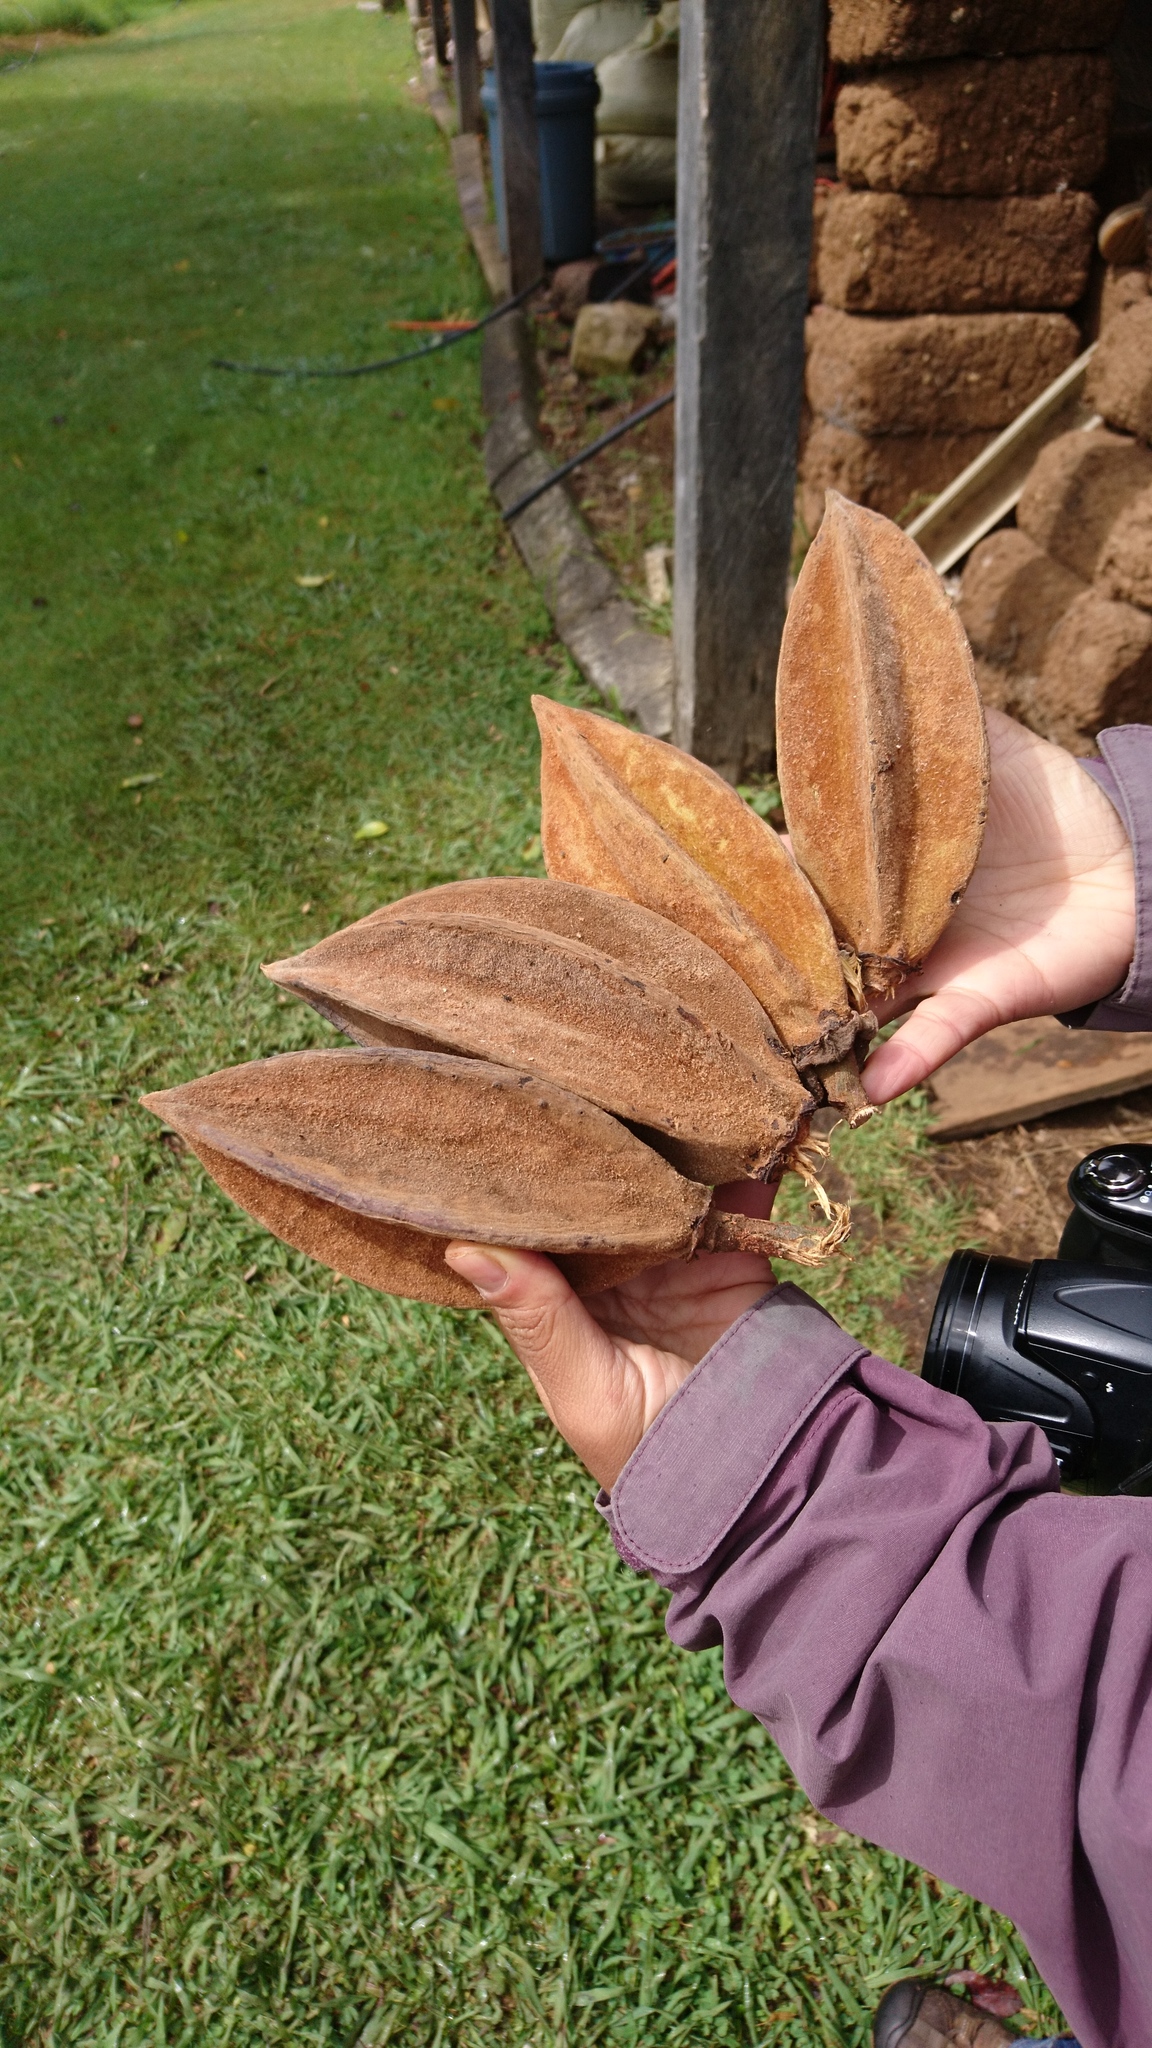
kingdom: Plantae
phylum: Tracheophyta
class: Magnoliopsida
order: Malvales
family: Malvaceae
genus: Chiranthodendron
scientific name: Chiranthodendron pentadactylon
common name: Mexican-hat-plant
